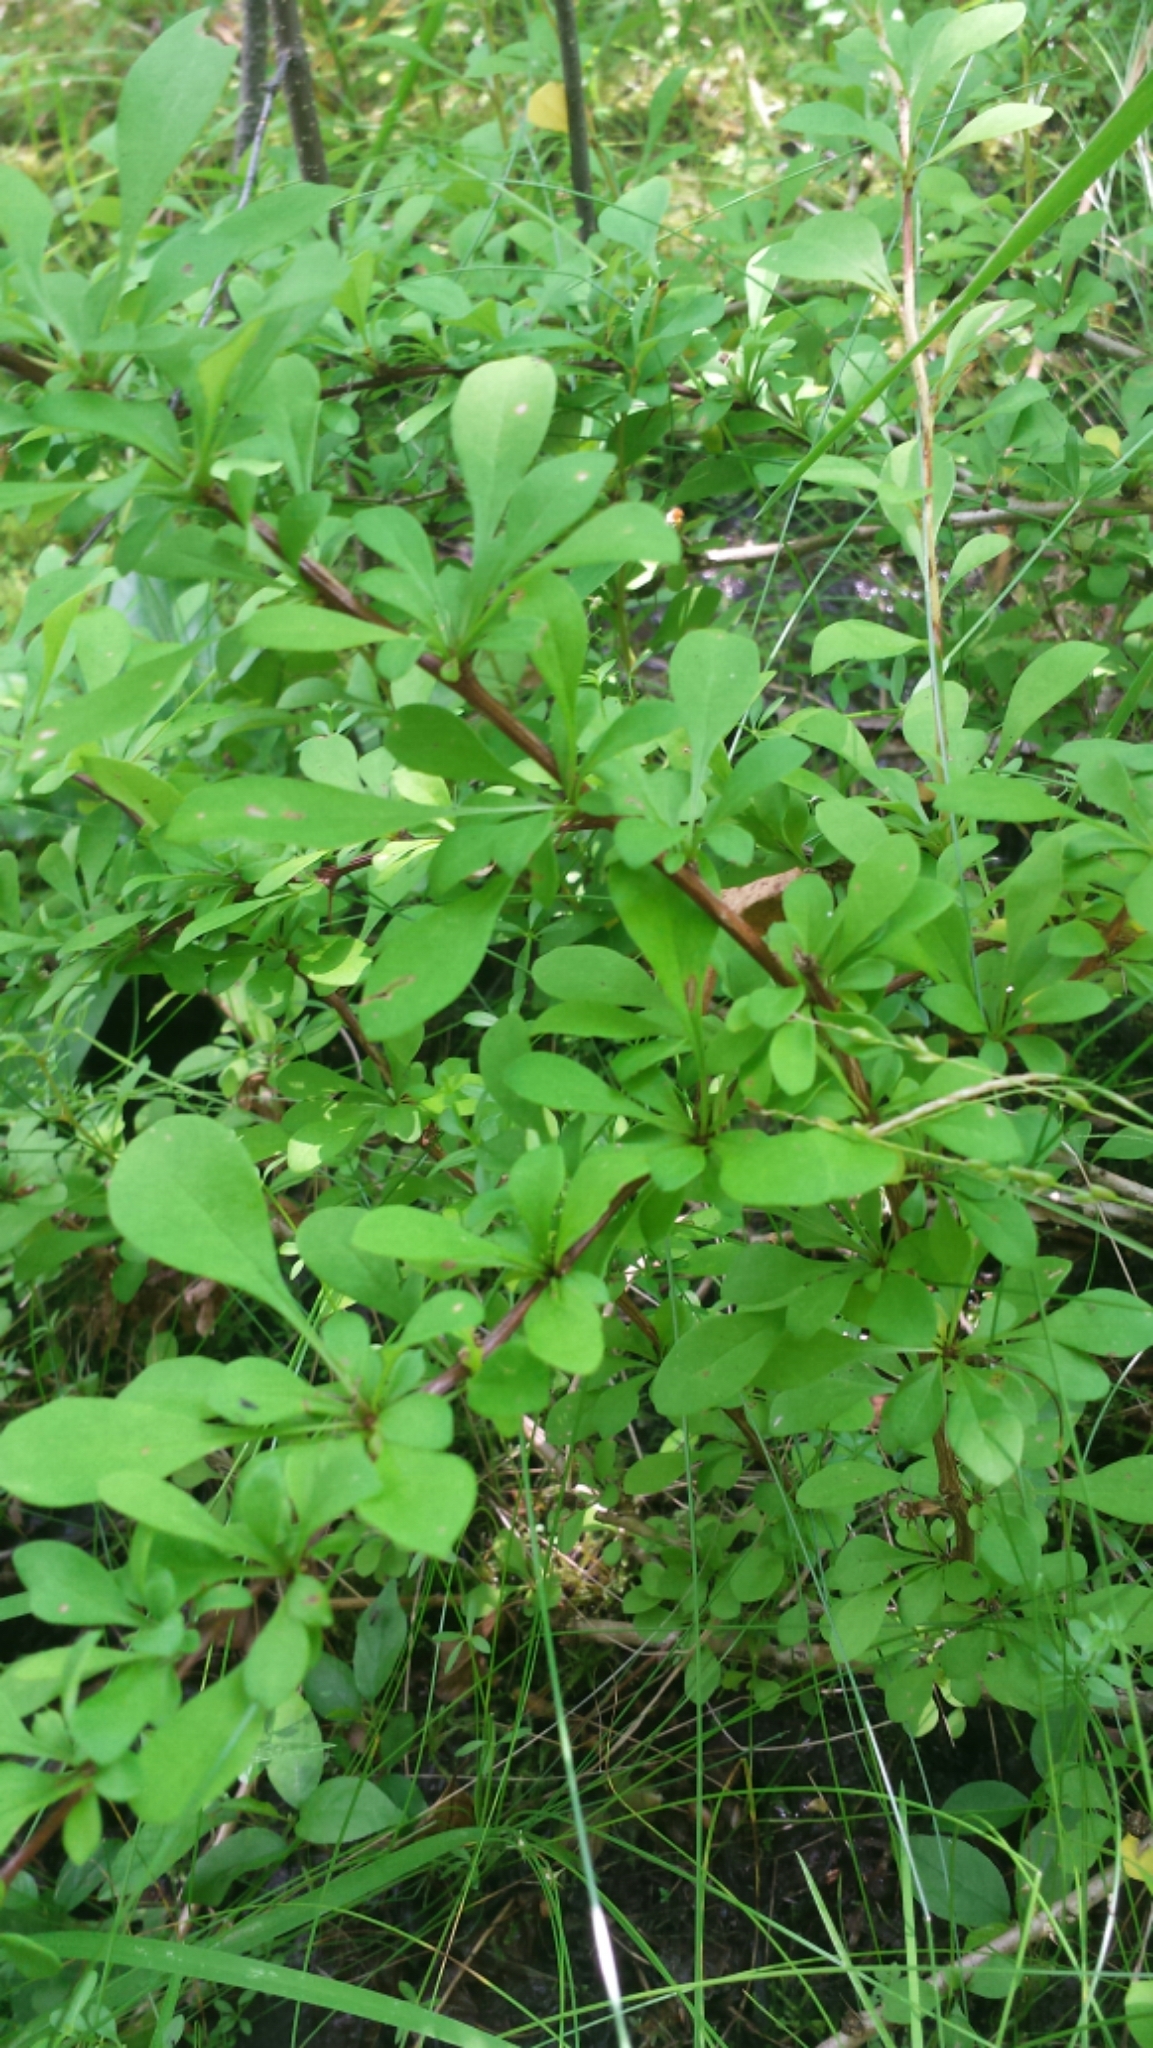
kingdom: Plantae
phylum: Tracheophyta
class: Magnoliopsida
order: Ranunculales
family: Berberidaceae
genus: Berberis
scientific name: Berberis thunbergii
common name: Japanese barberry
